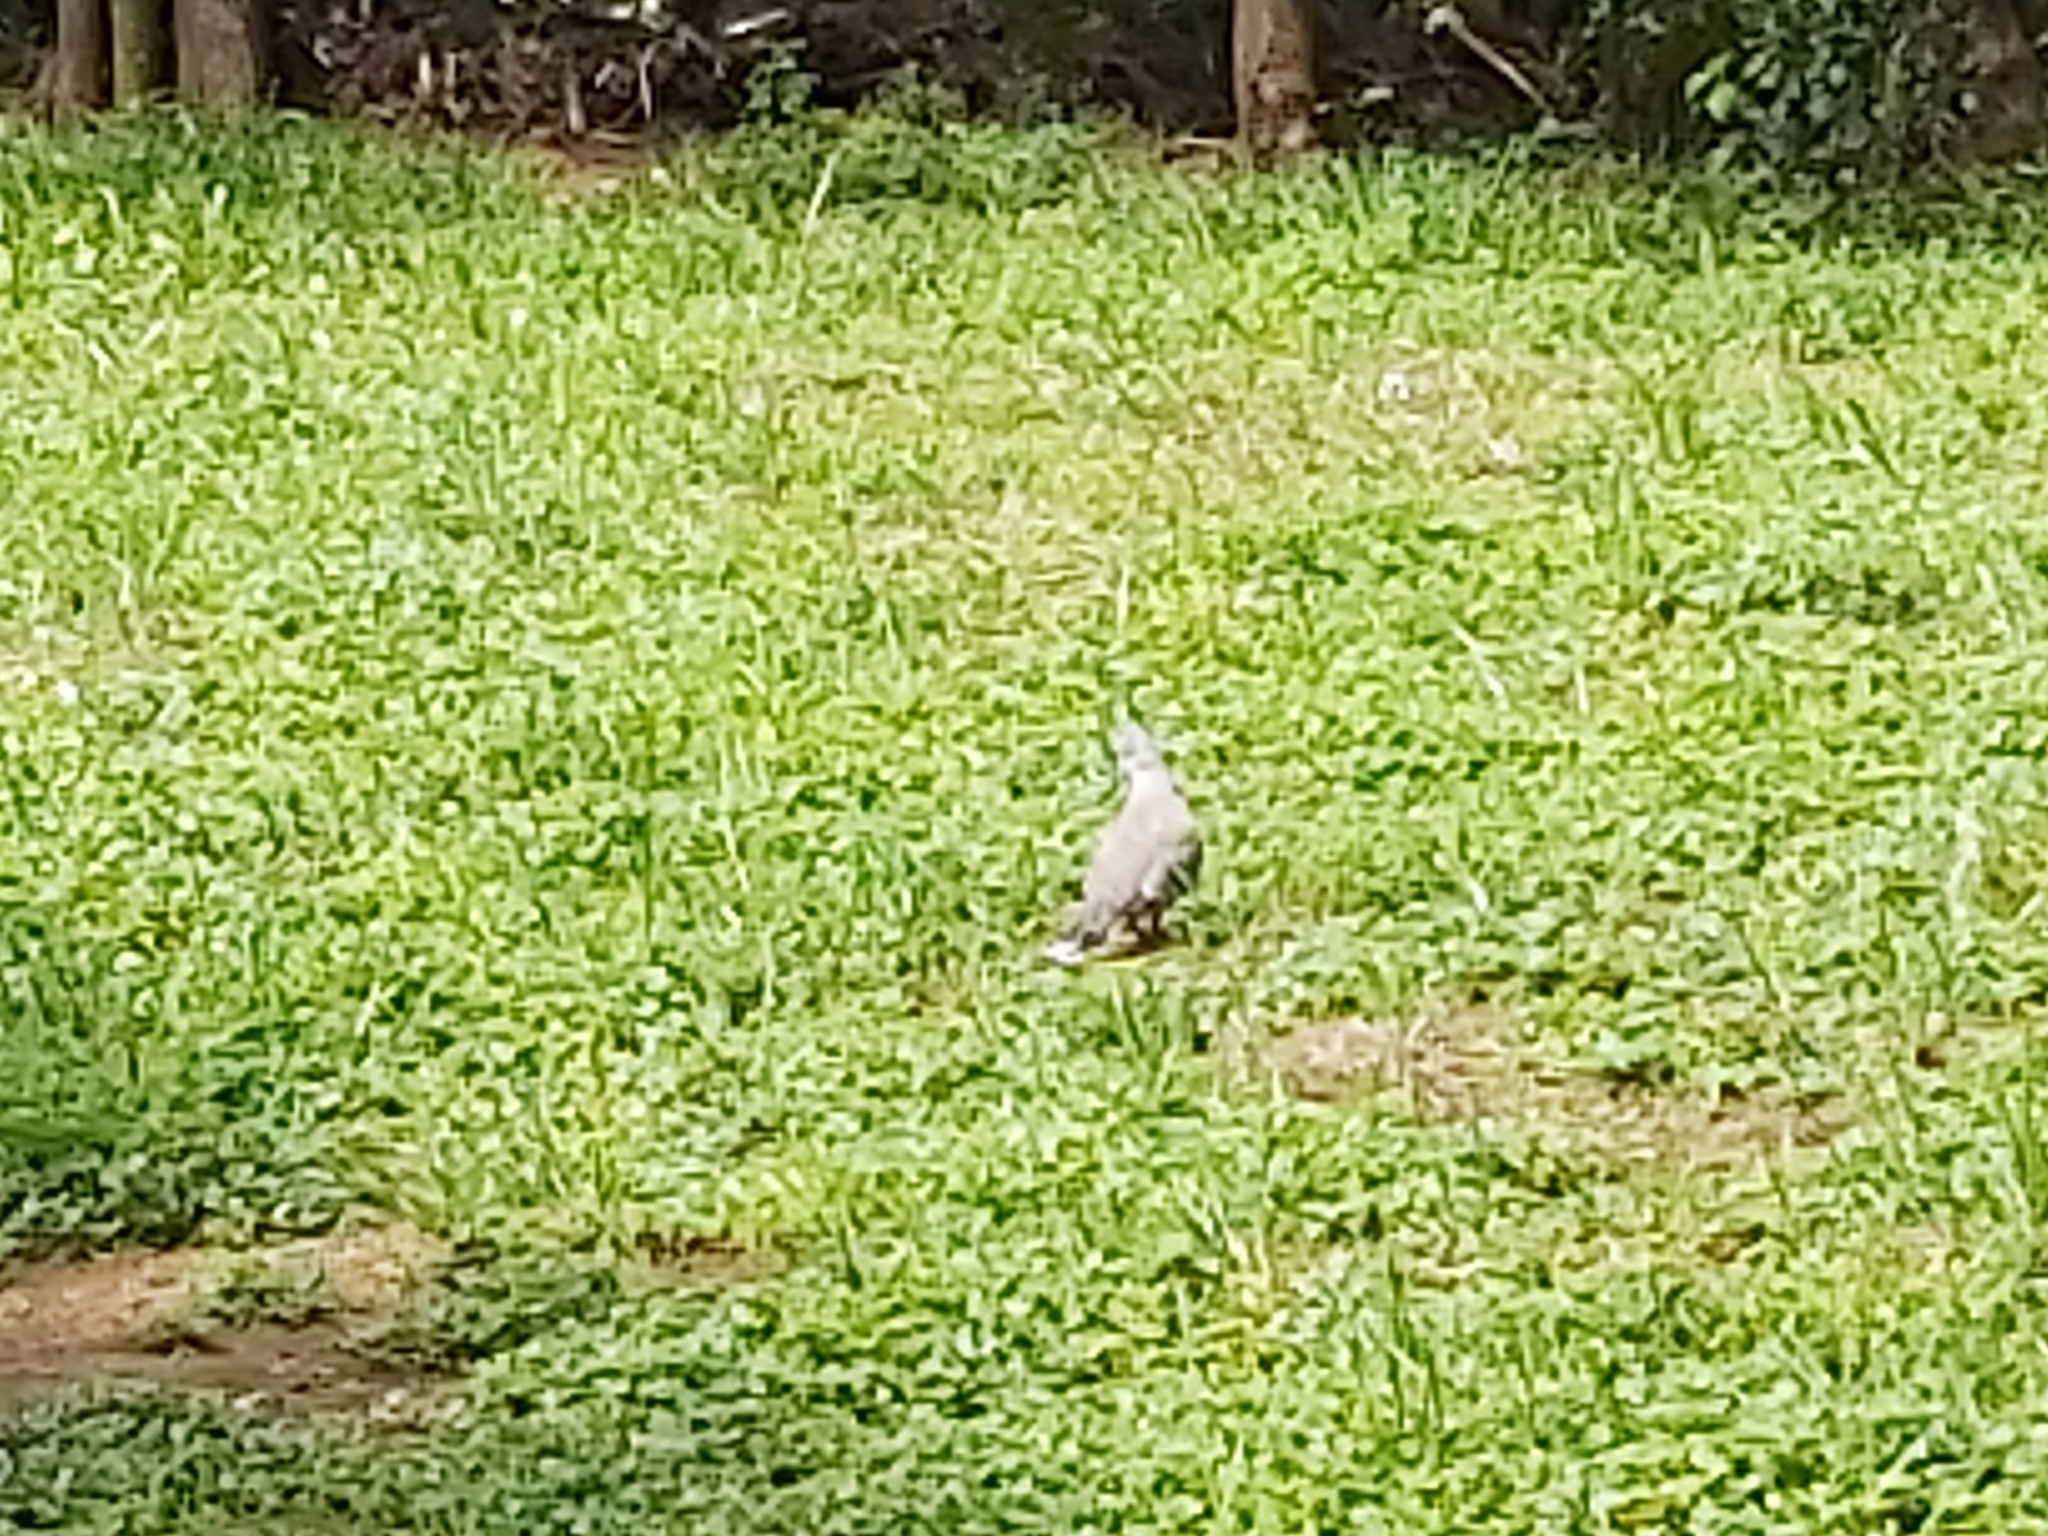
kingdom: Animalia
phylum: Chordata
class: Aves
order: Columbiformes
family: Columbidae
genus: Ocyphaps
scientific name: Ocyphaps lophotes
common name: Crested pigeon
